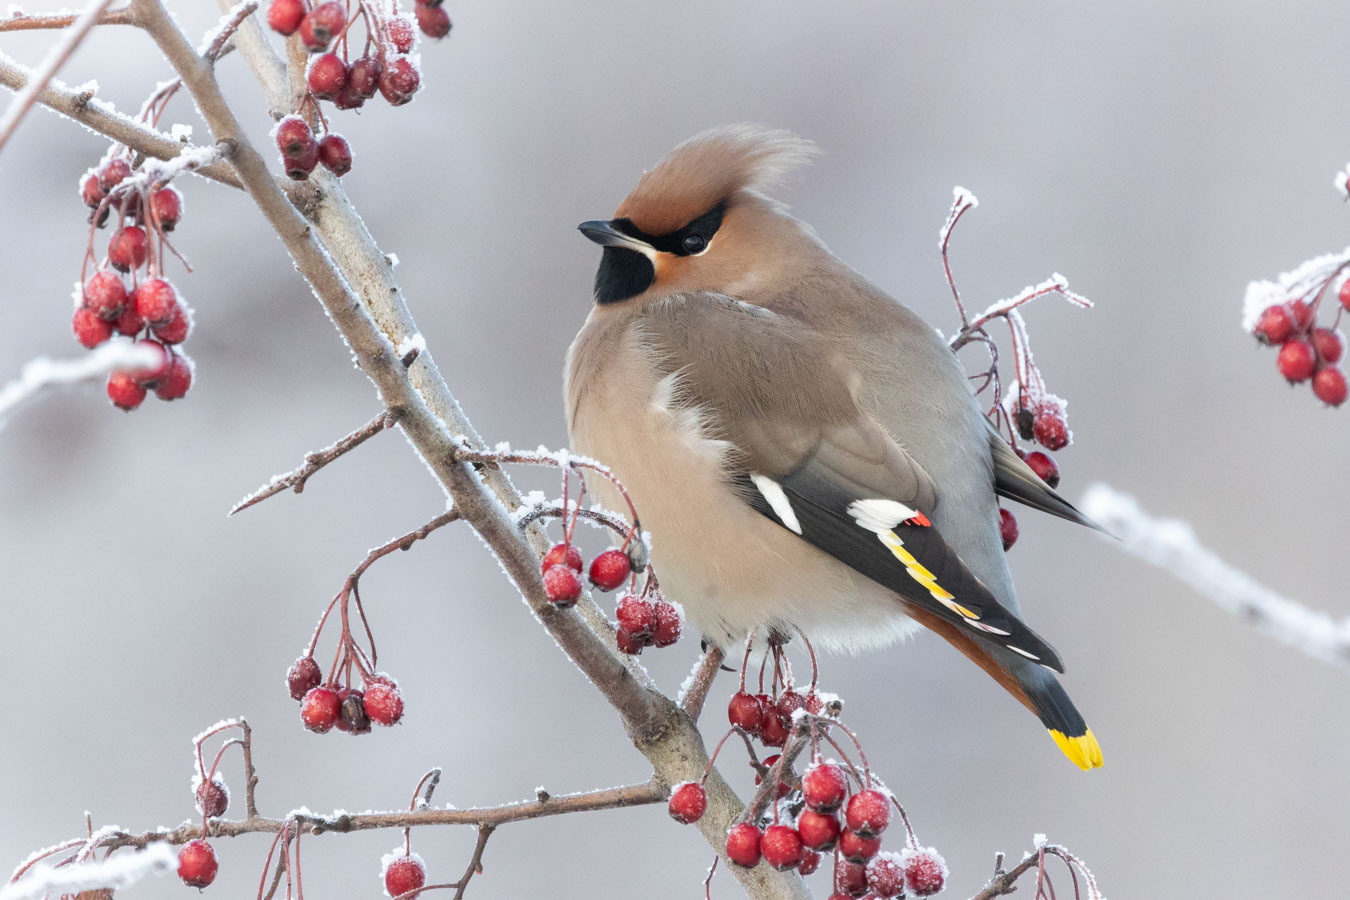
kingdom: Animalia
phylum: Chordata
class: Aves
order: Passeriformes
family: Bombycillidae
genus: Bombycilla
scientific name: Bombycilla garrulus
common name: Bohemian waxwing
